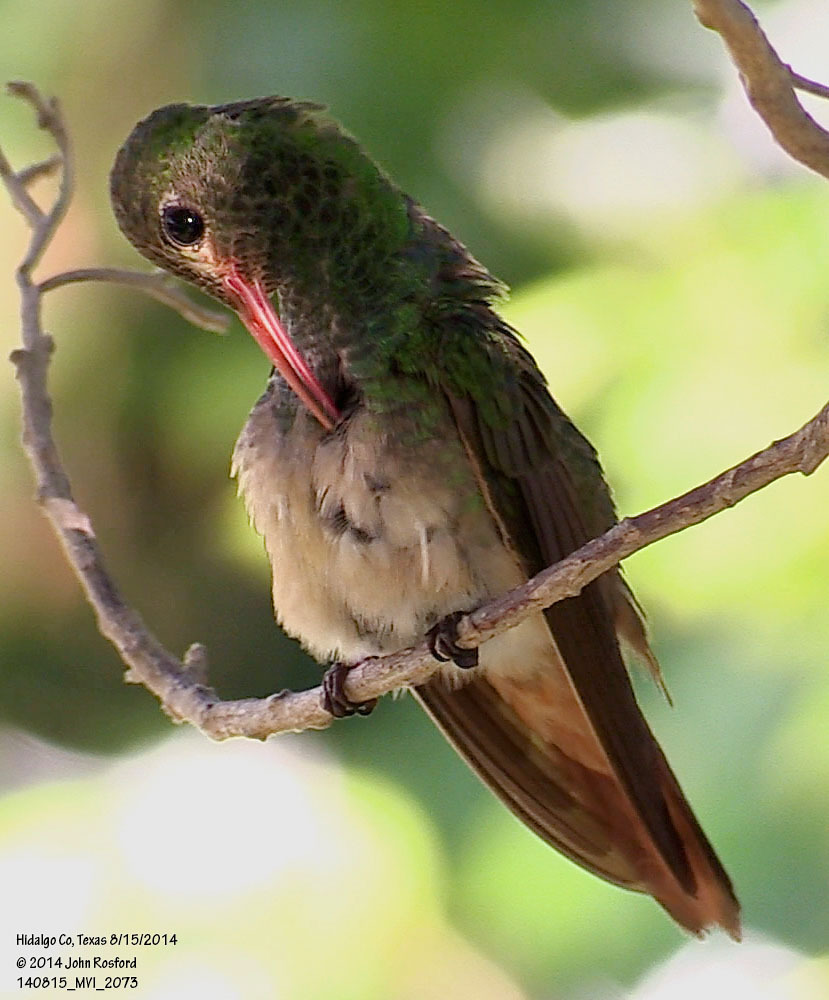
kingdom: Animalia
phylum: Chordata
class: Aves
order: Apodiformes
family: Trochilidae
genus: Amazilia
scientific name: Amazilia yucatanensis
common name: Buff-bellied hummingbird
